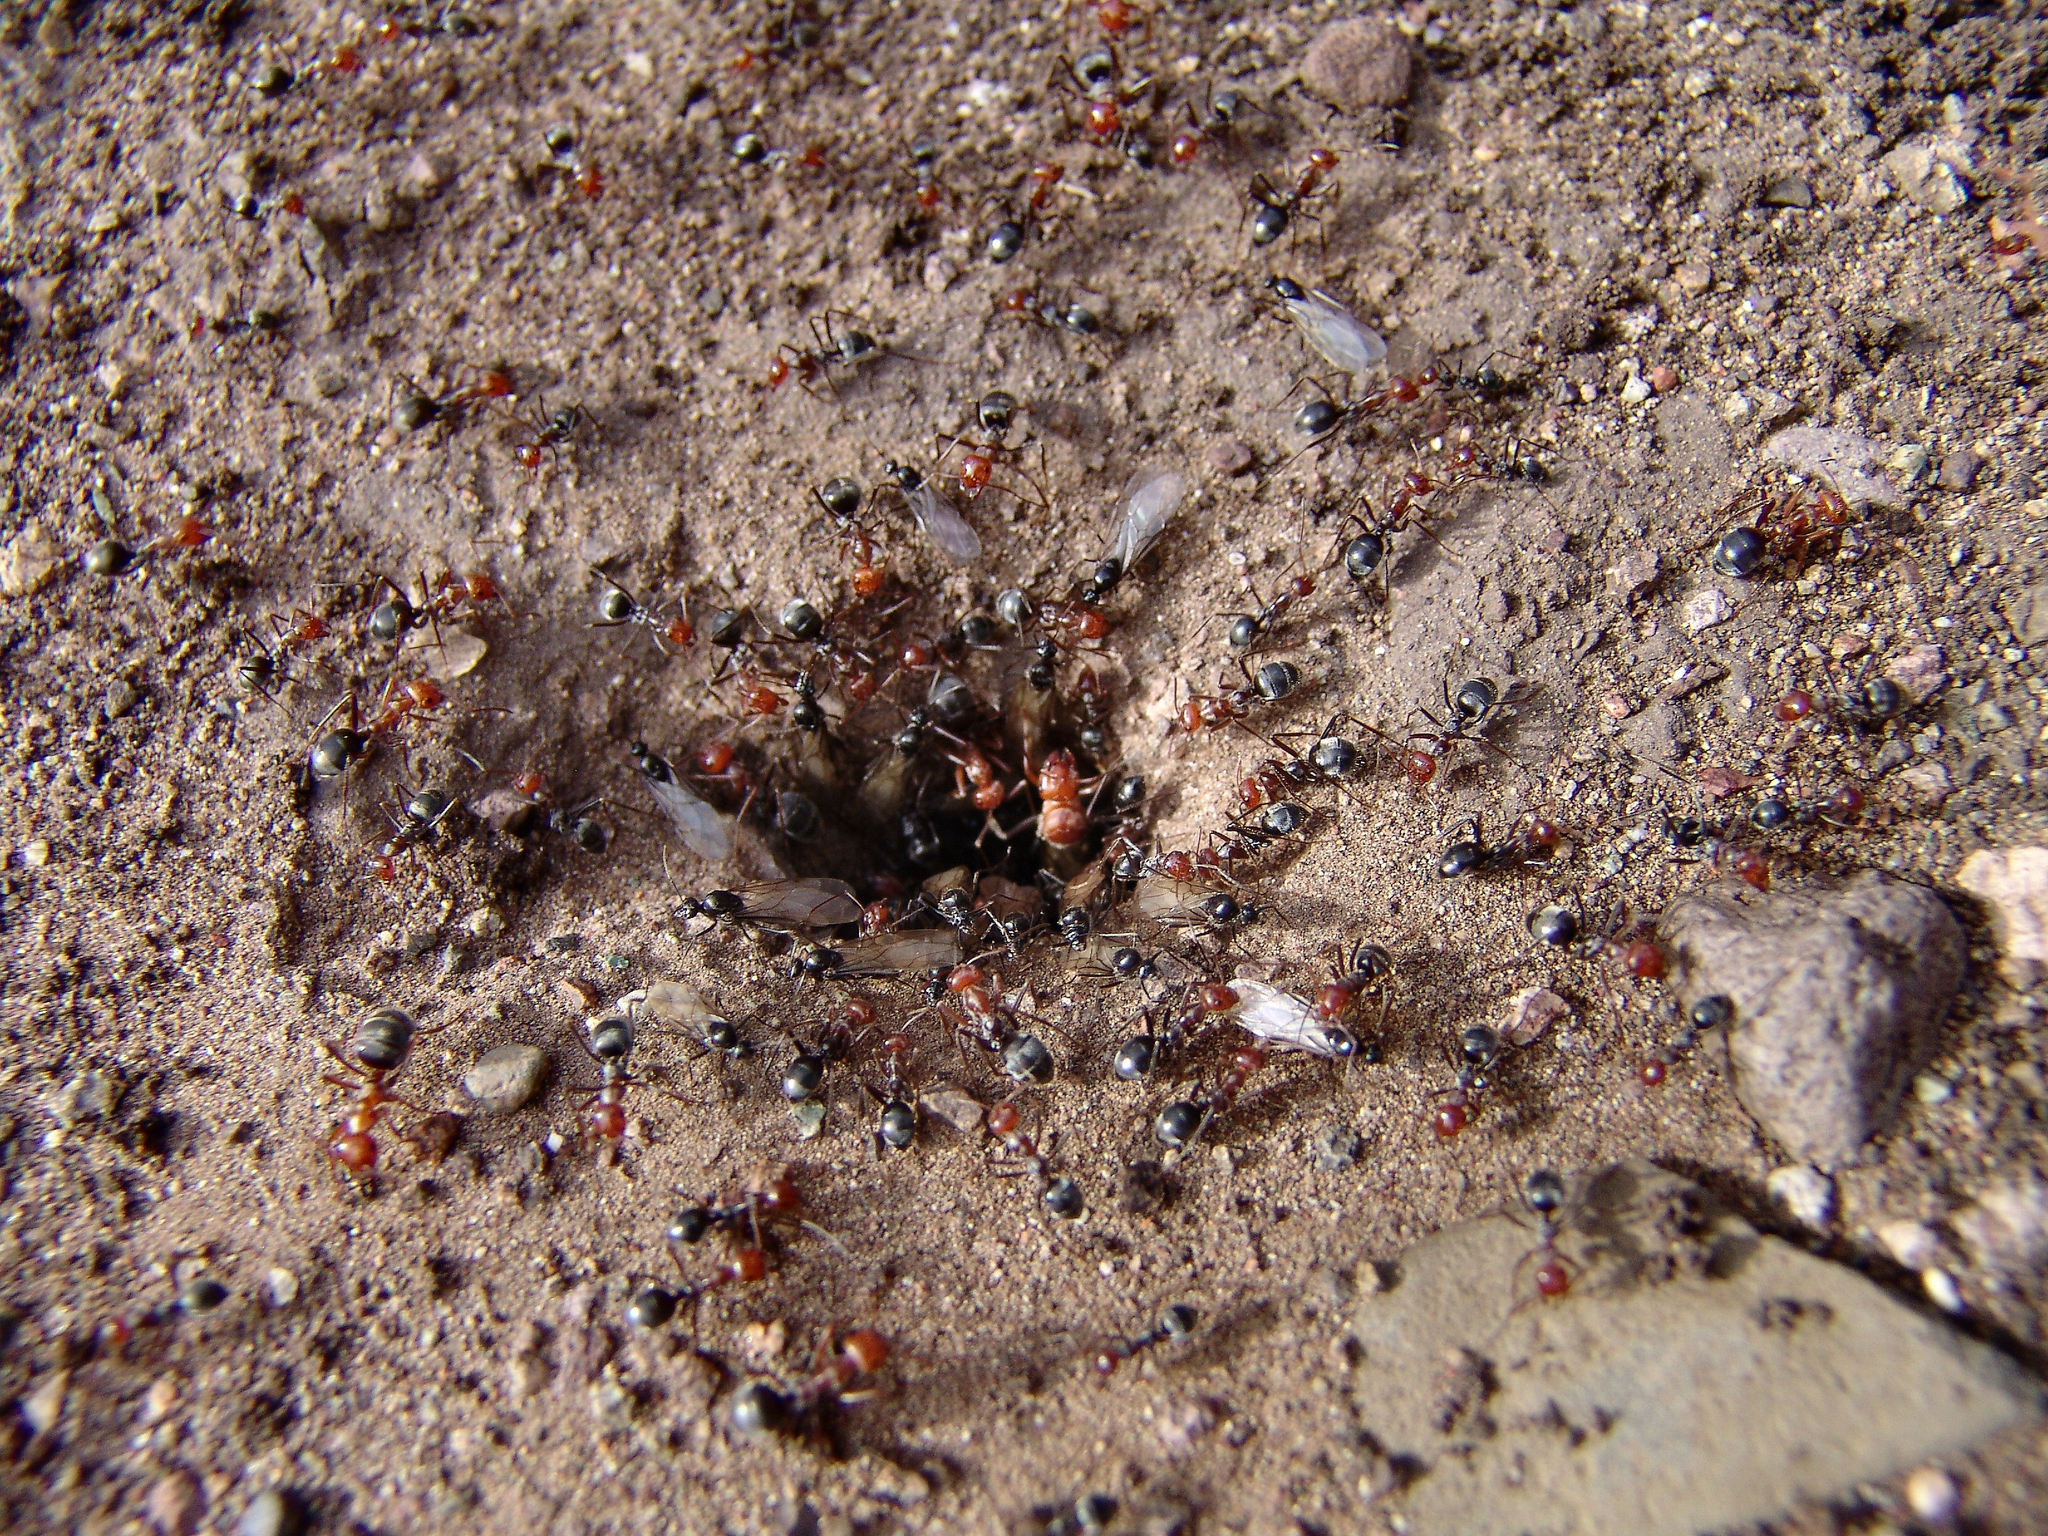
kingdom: Animalia
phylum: Arthropoda
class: Insecta
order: Hymenoptera
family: Formicidae
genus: Myrmecocystus
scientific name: Myrmecocystus mendax
